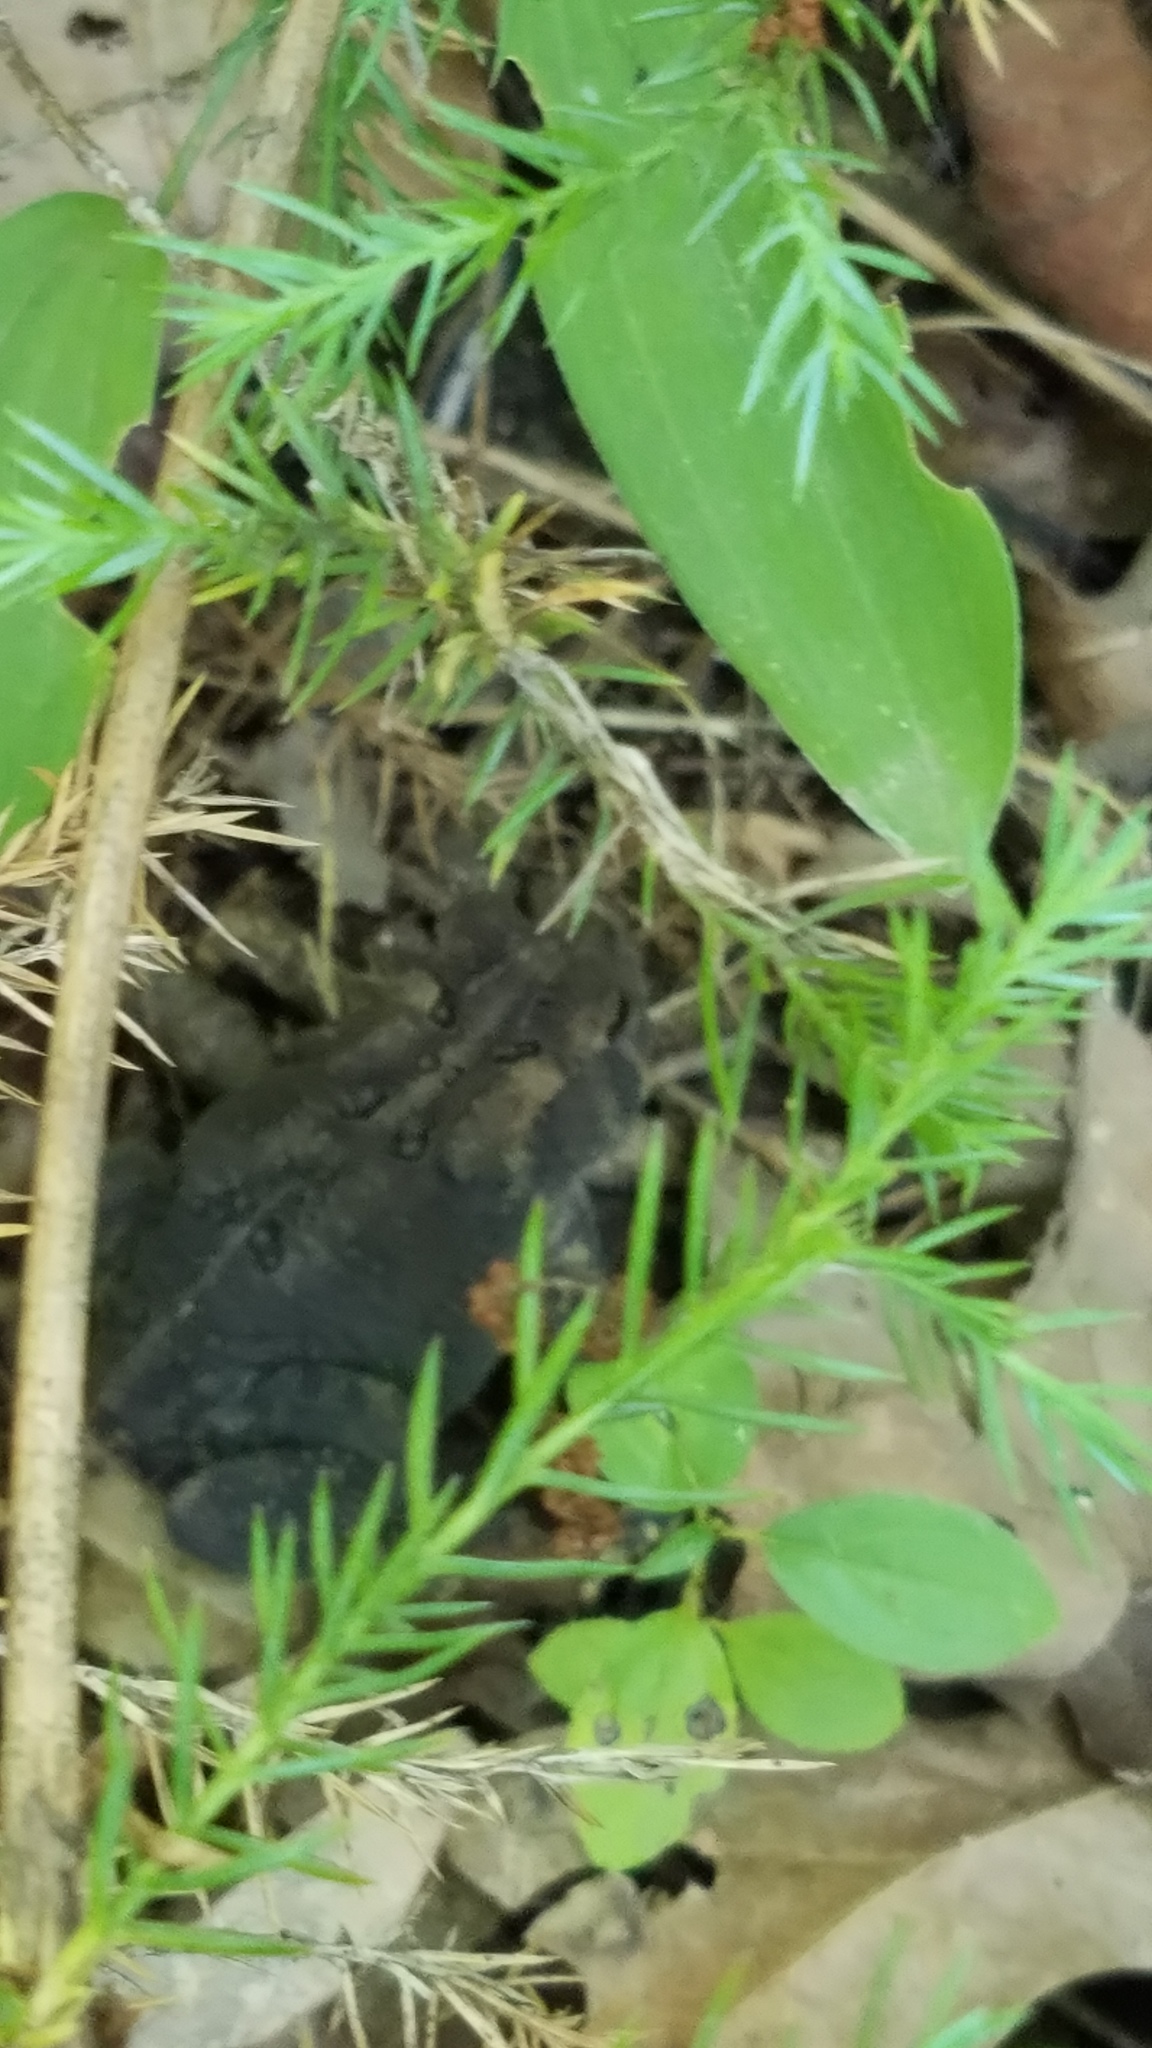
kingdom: Plantae
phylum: Tracheophyta
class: Pinopsida
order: Pinales
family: Cupressaceae
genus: Juniperus
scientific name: Juniperus virginiana
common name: Red juniper
